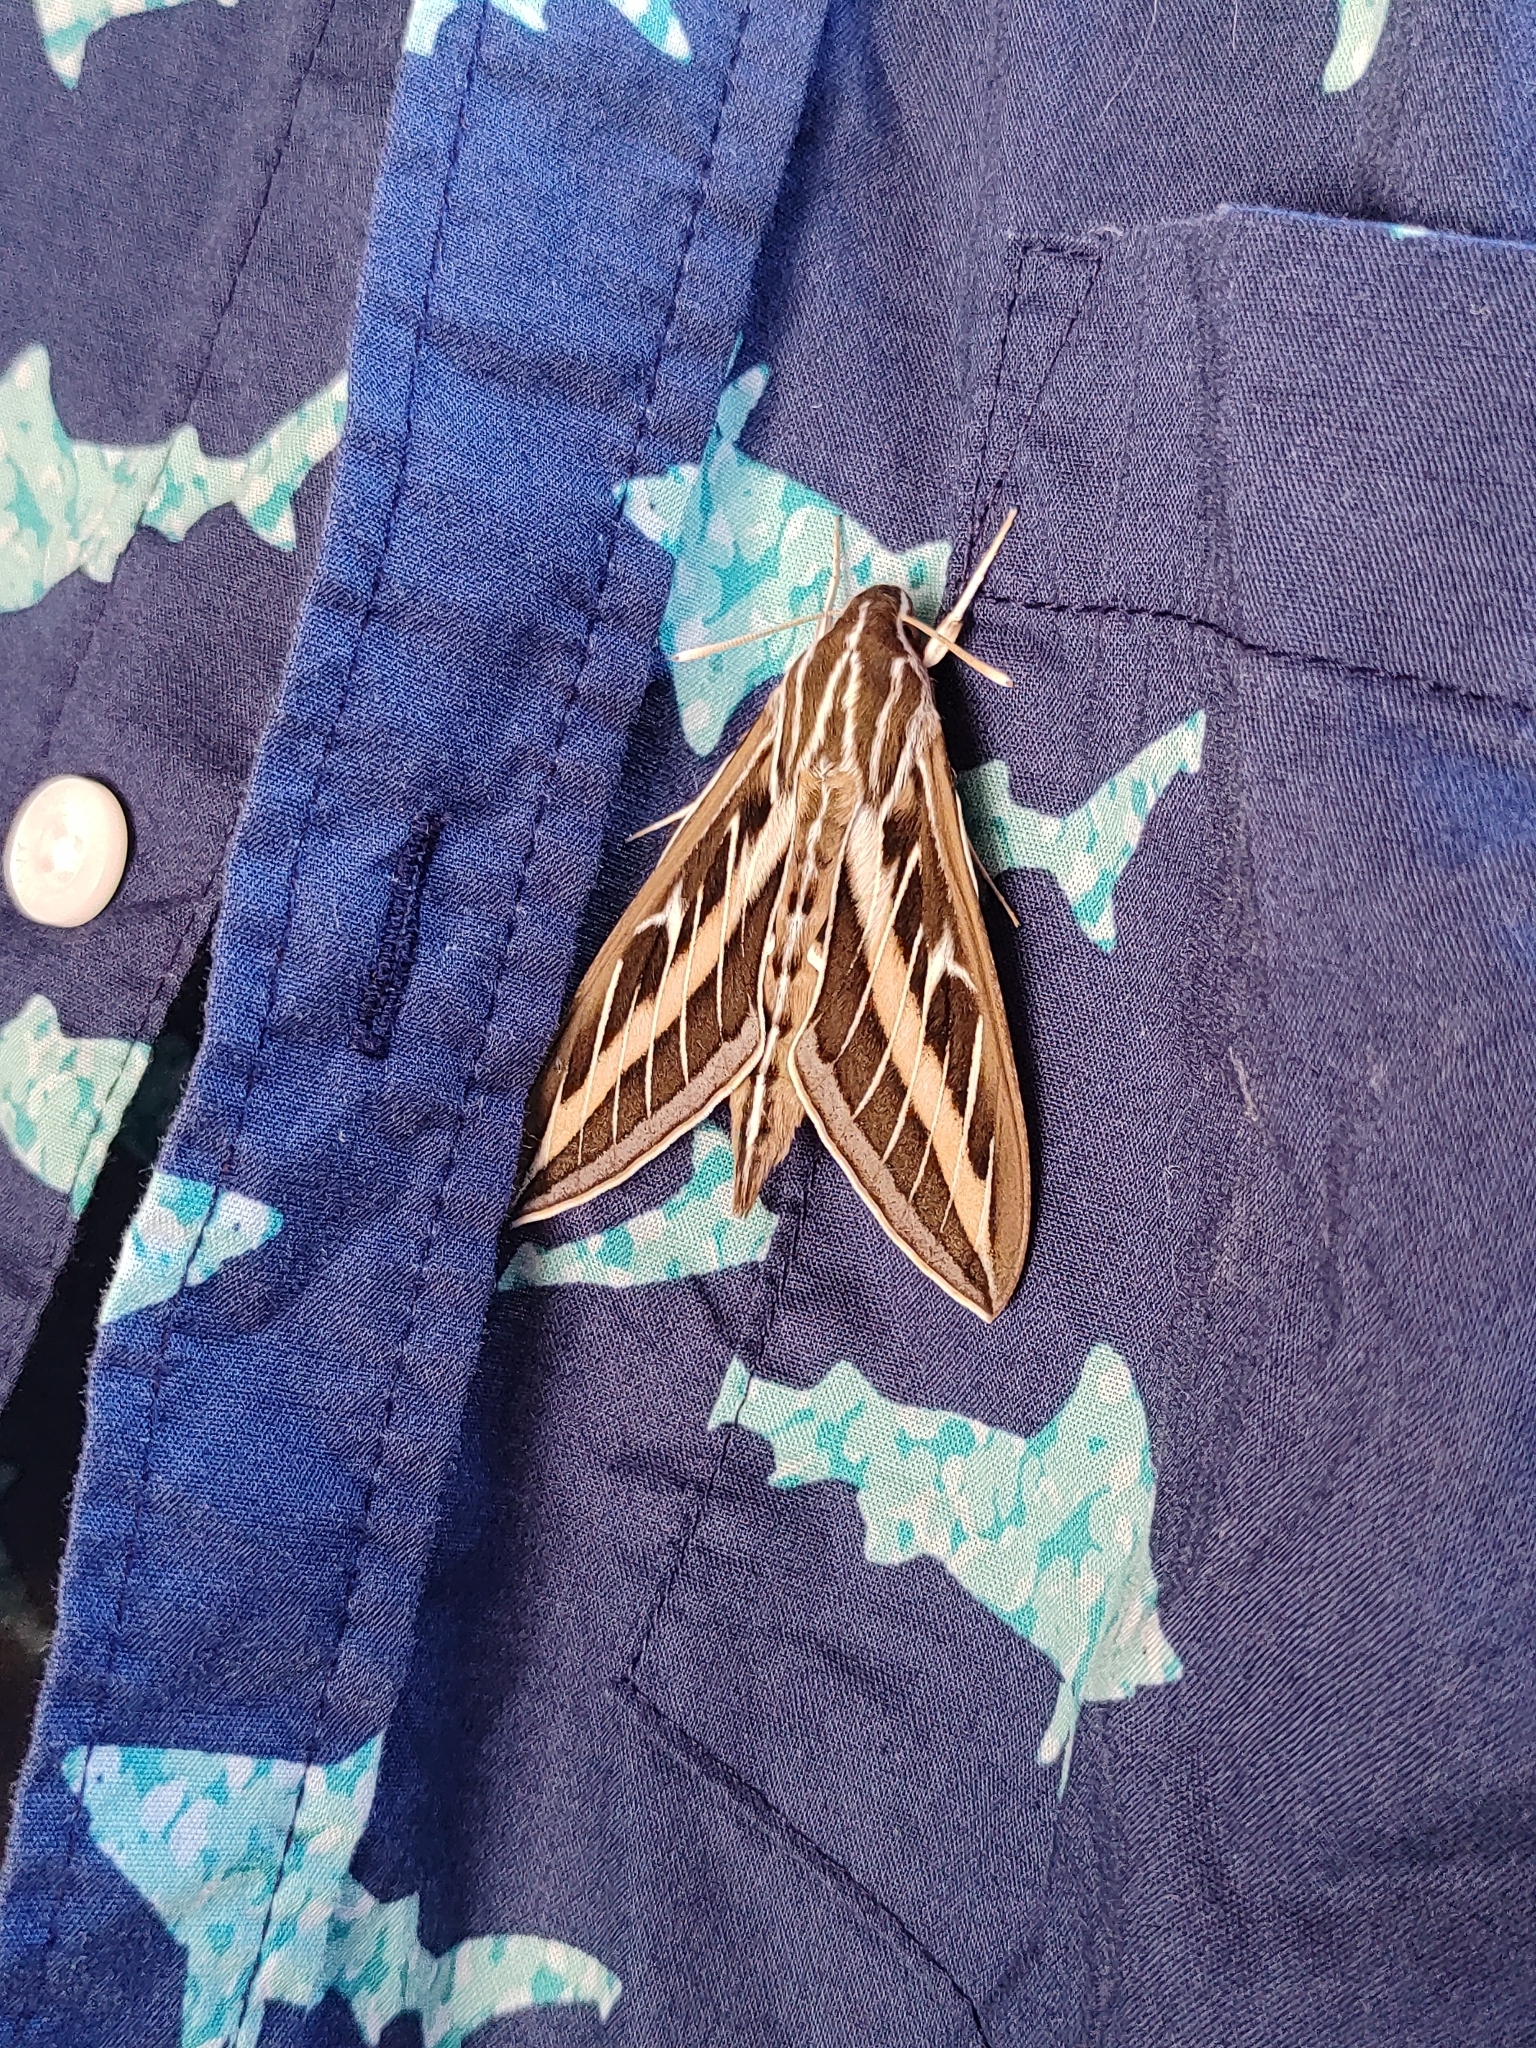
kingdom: Animalia
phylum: Arthropoda
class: Insecta
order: Lepidoptera
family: Sphingidae
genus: Hyles
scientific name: Hyles lineata
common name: White-lined sphinx
